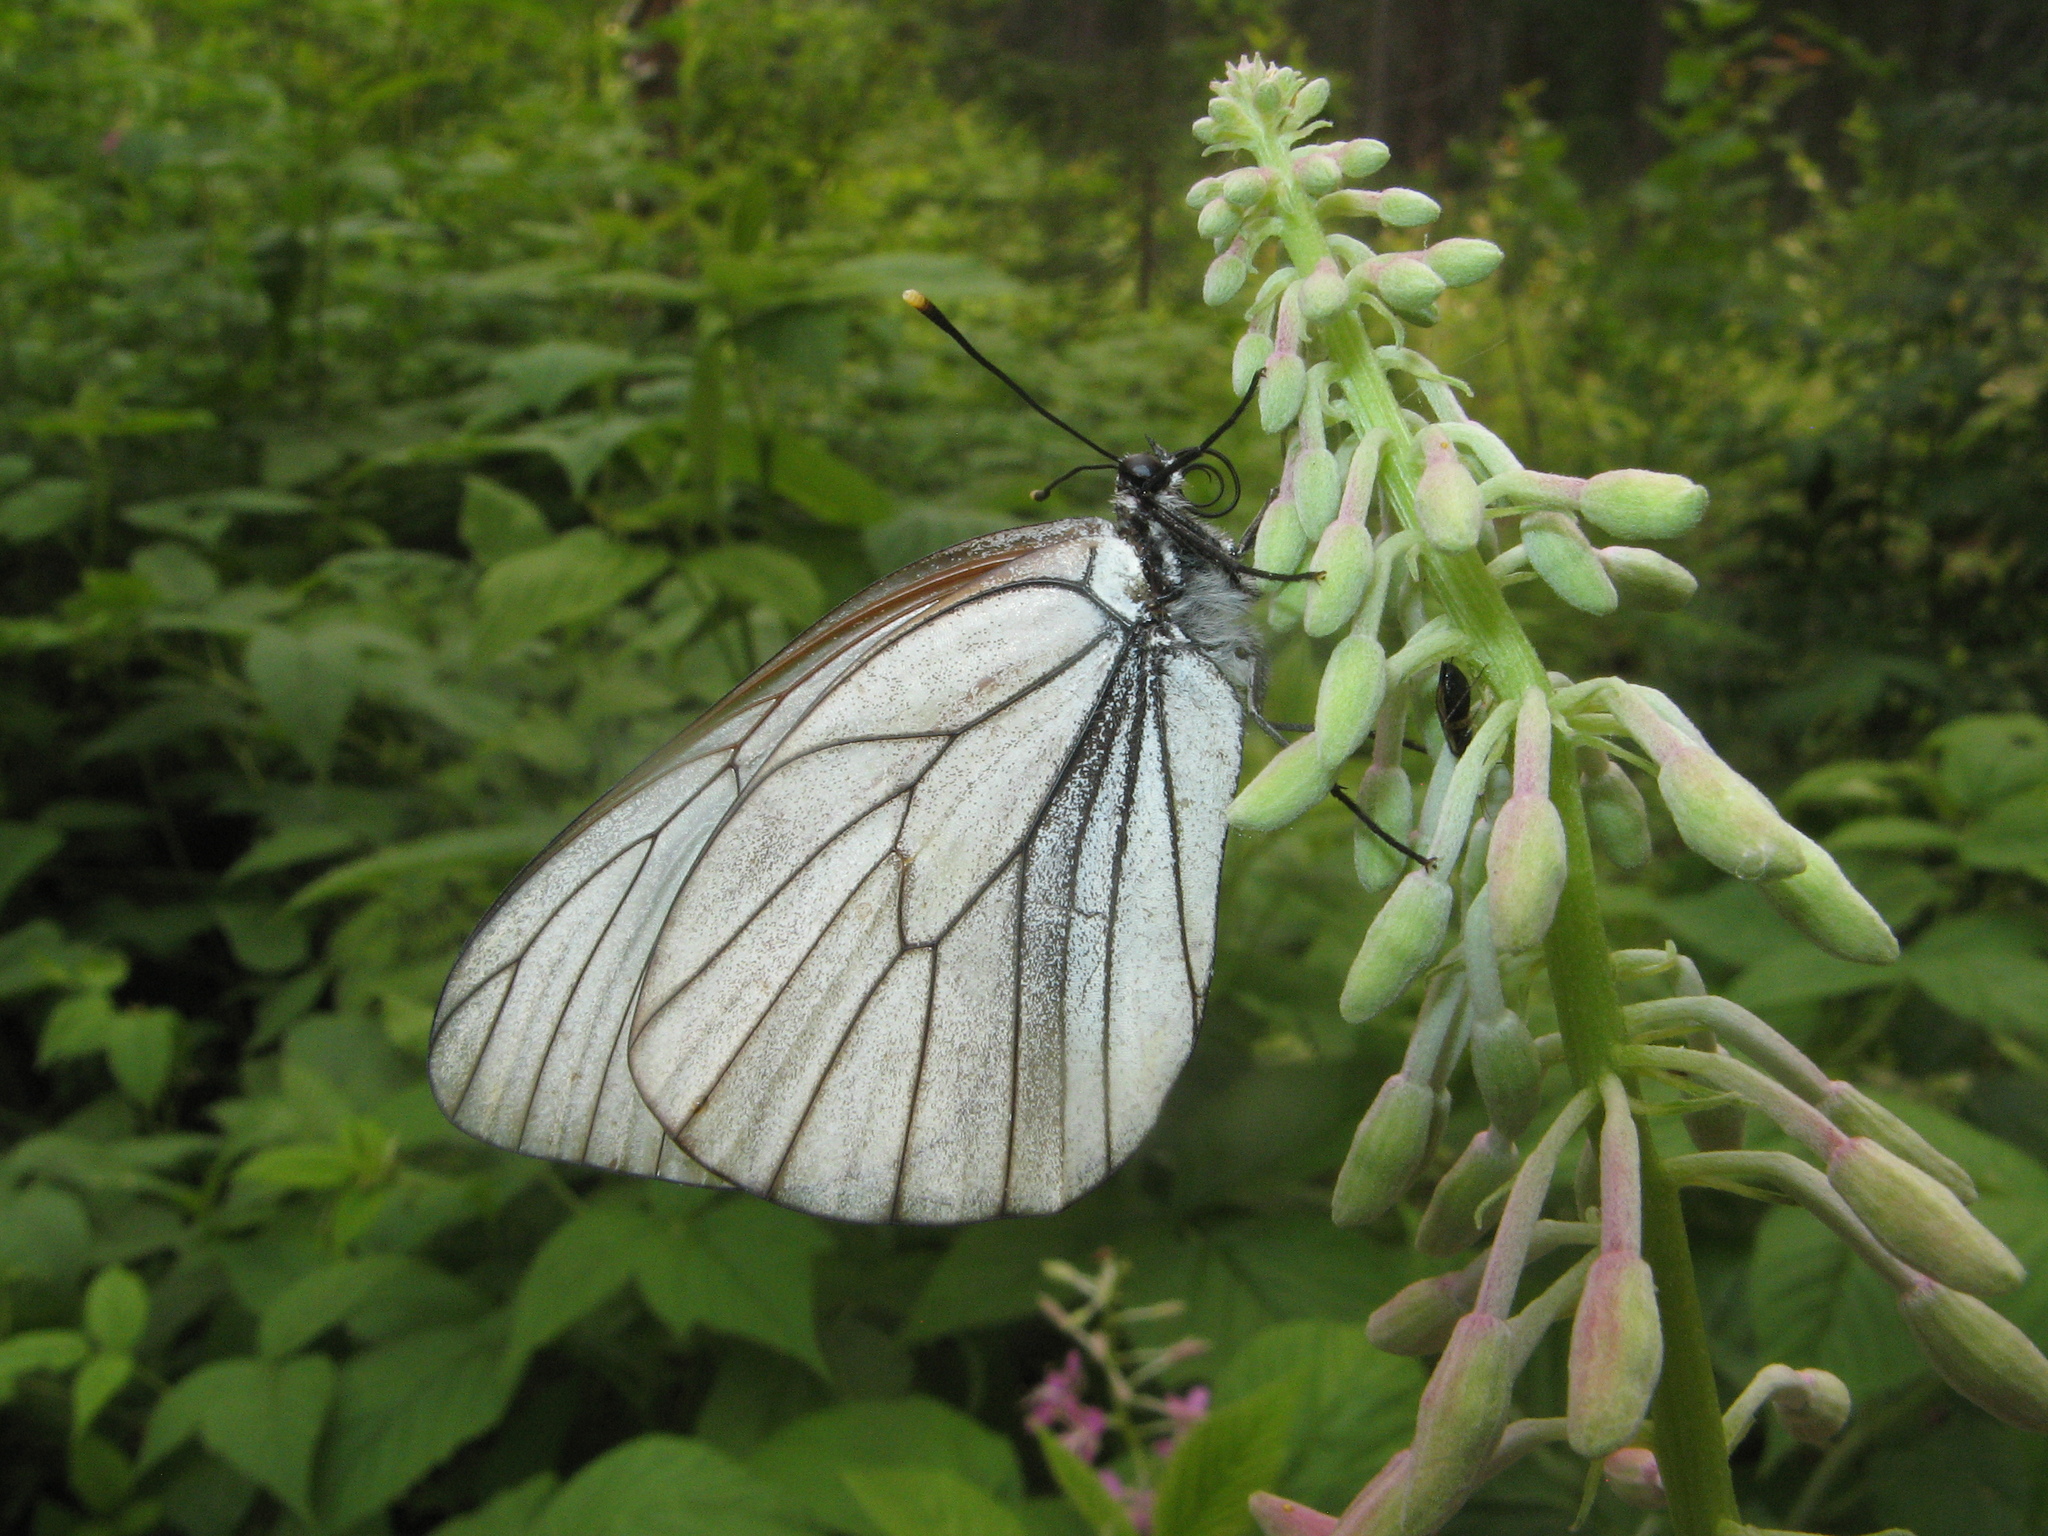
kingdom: Animalia
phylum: Arthropoda
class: Insecta
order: Lepidoptera
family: Pieridae
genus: Aporia
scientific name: Aporia crataegi
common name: Black-veined white
